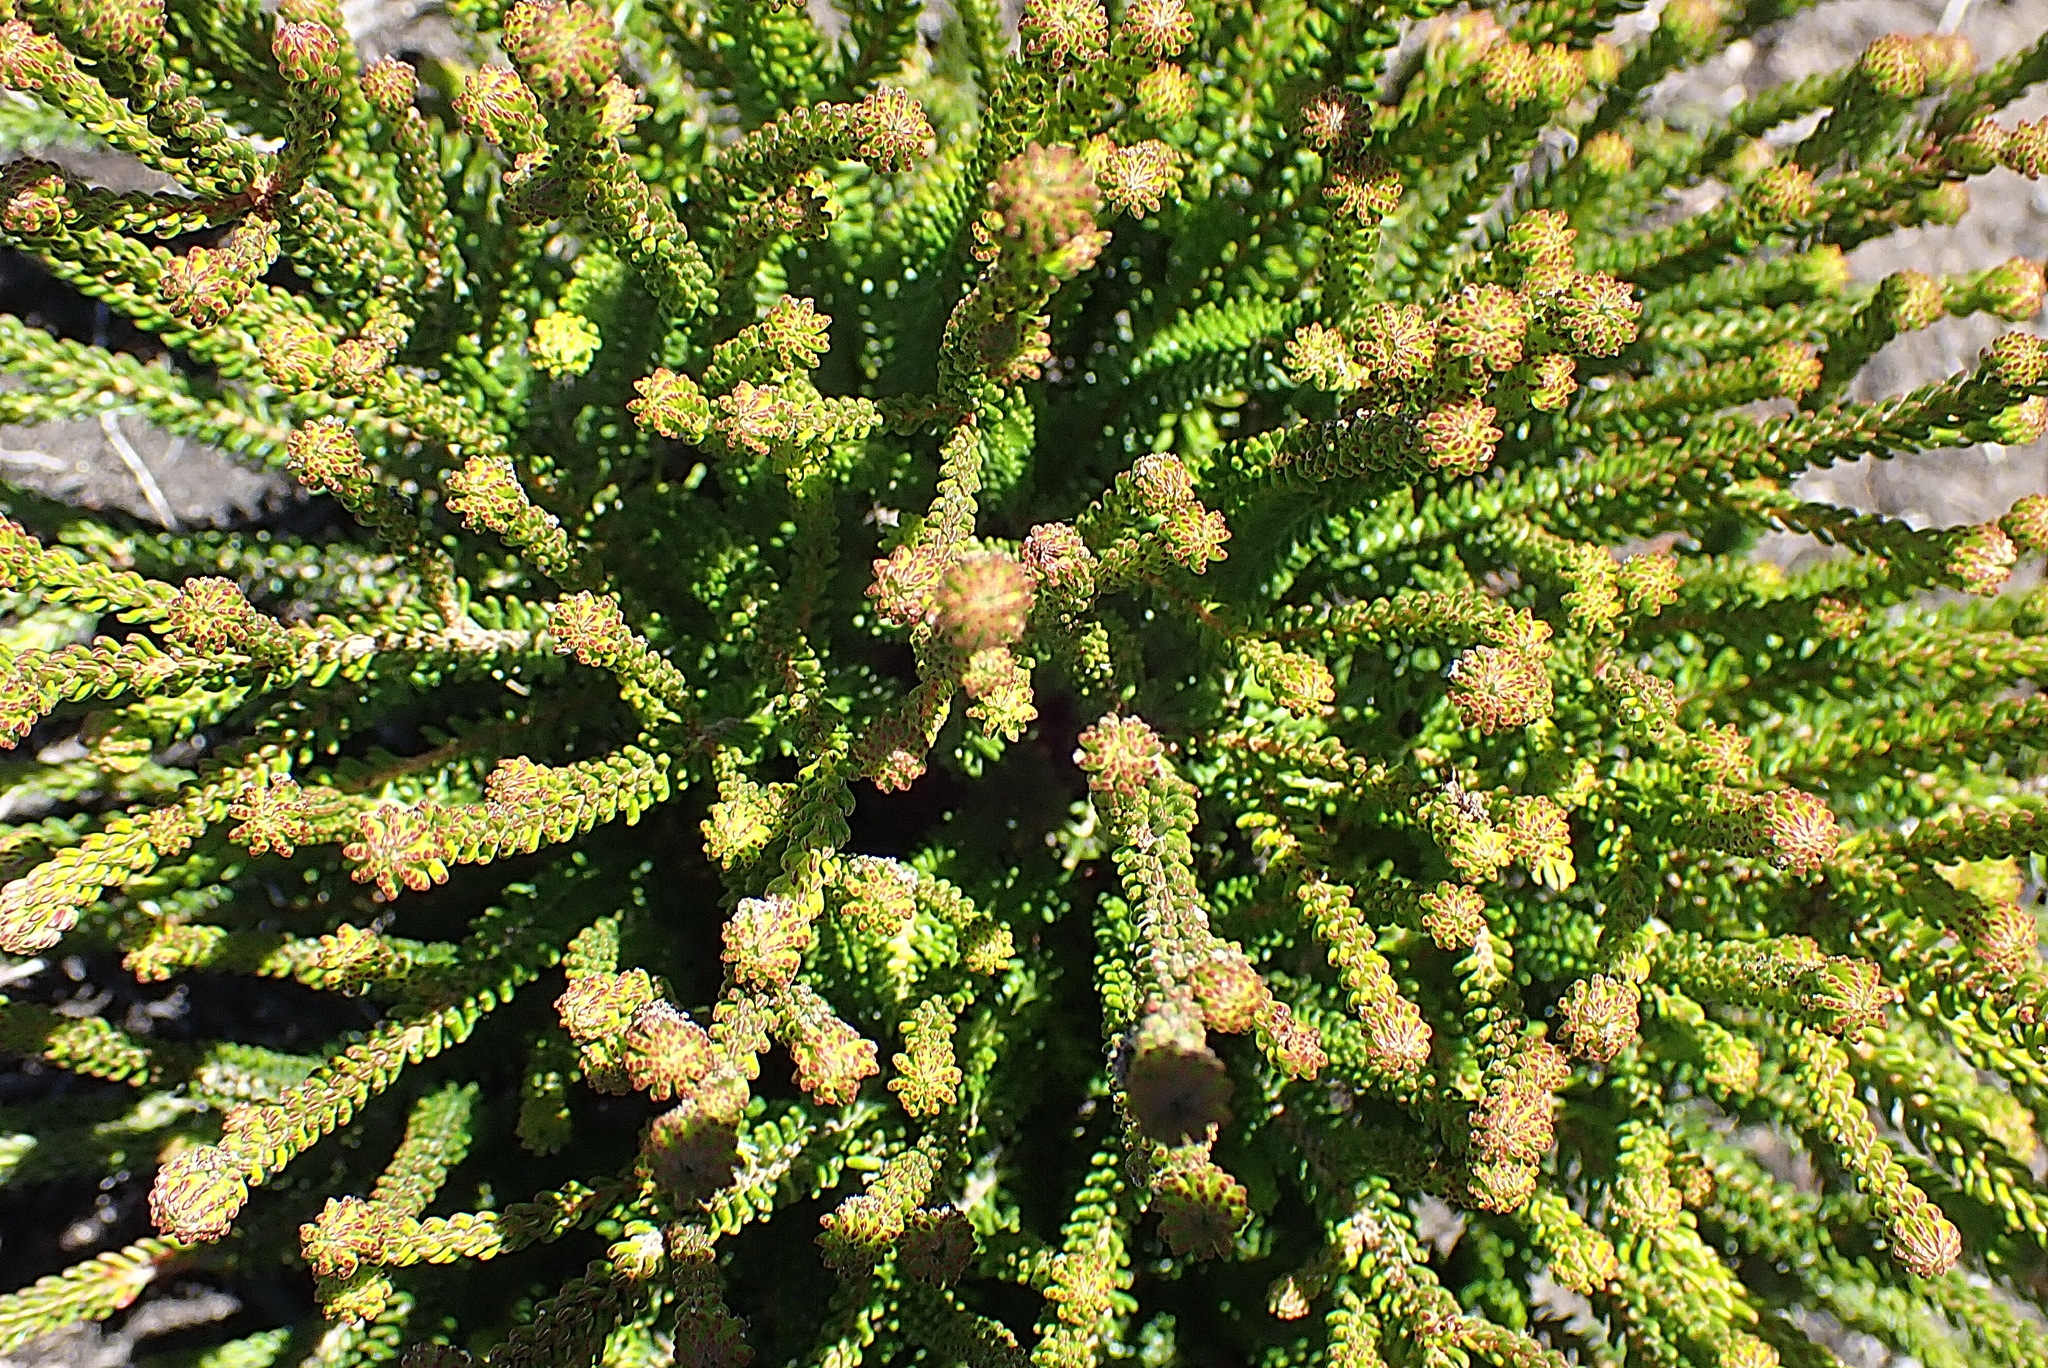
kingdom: Plantae
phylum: Tracheophyta
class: Magnoliopsida
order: Bruniales
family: Bruniaceae
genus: Berzelia
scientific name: Berzelia intermedia
